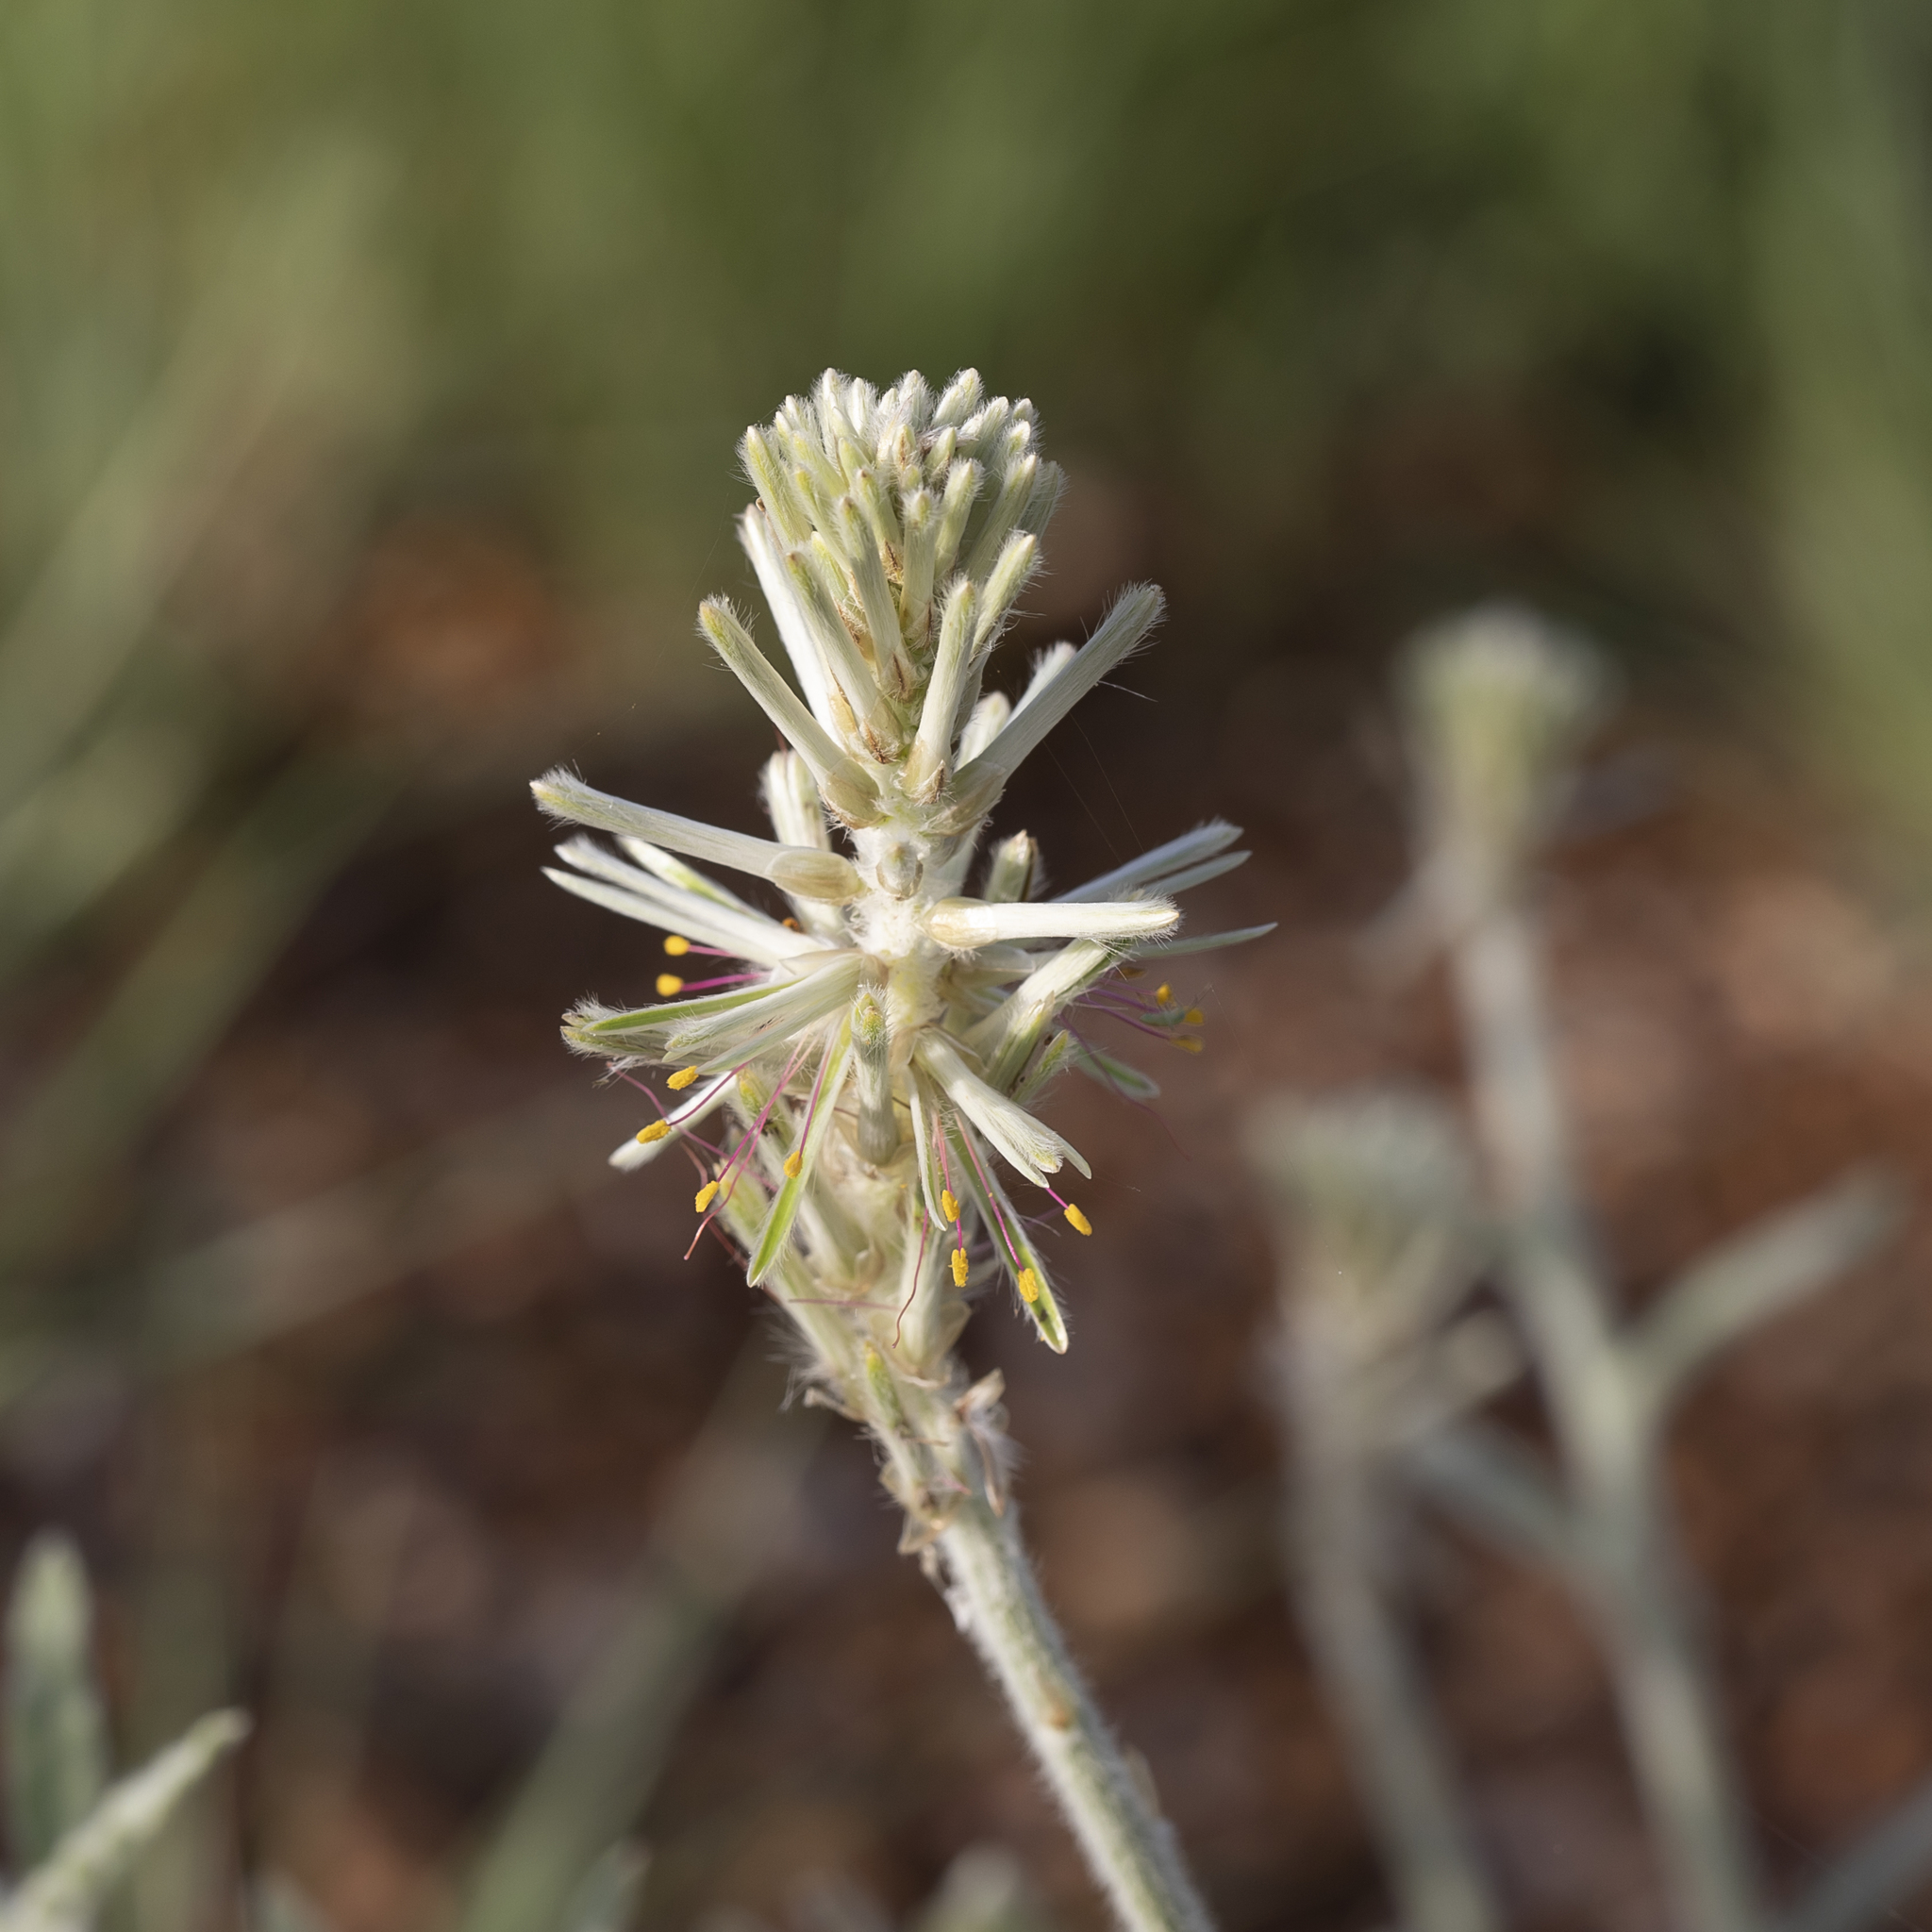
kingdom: Plantae
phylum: Tracheophyta
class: Magnoliopsida
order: Caryophyllales
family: Amaranthaceae
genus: Ptilotus
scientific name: Ptilotus polystachyus
